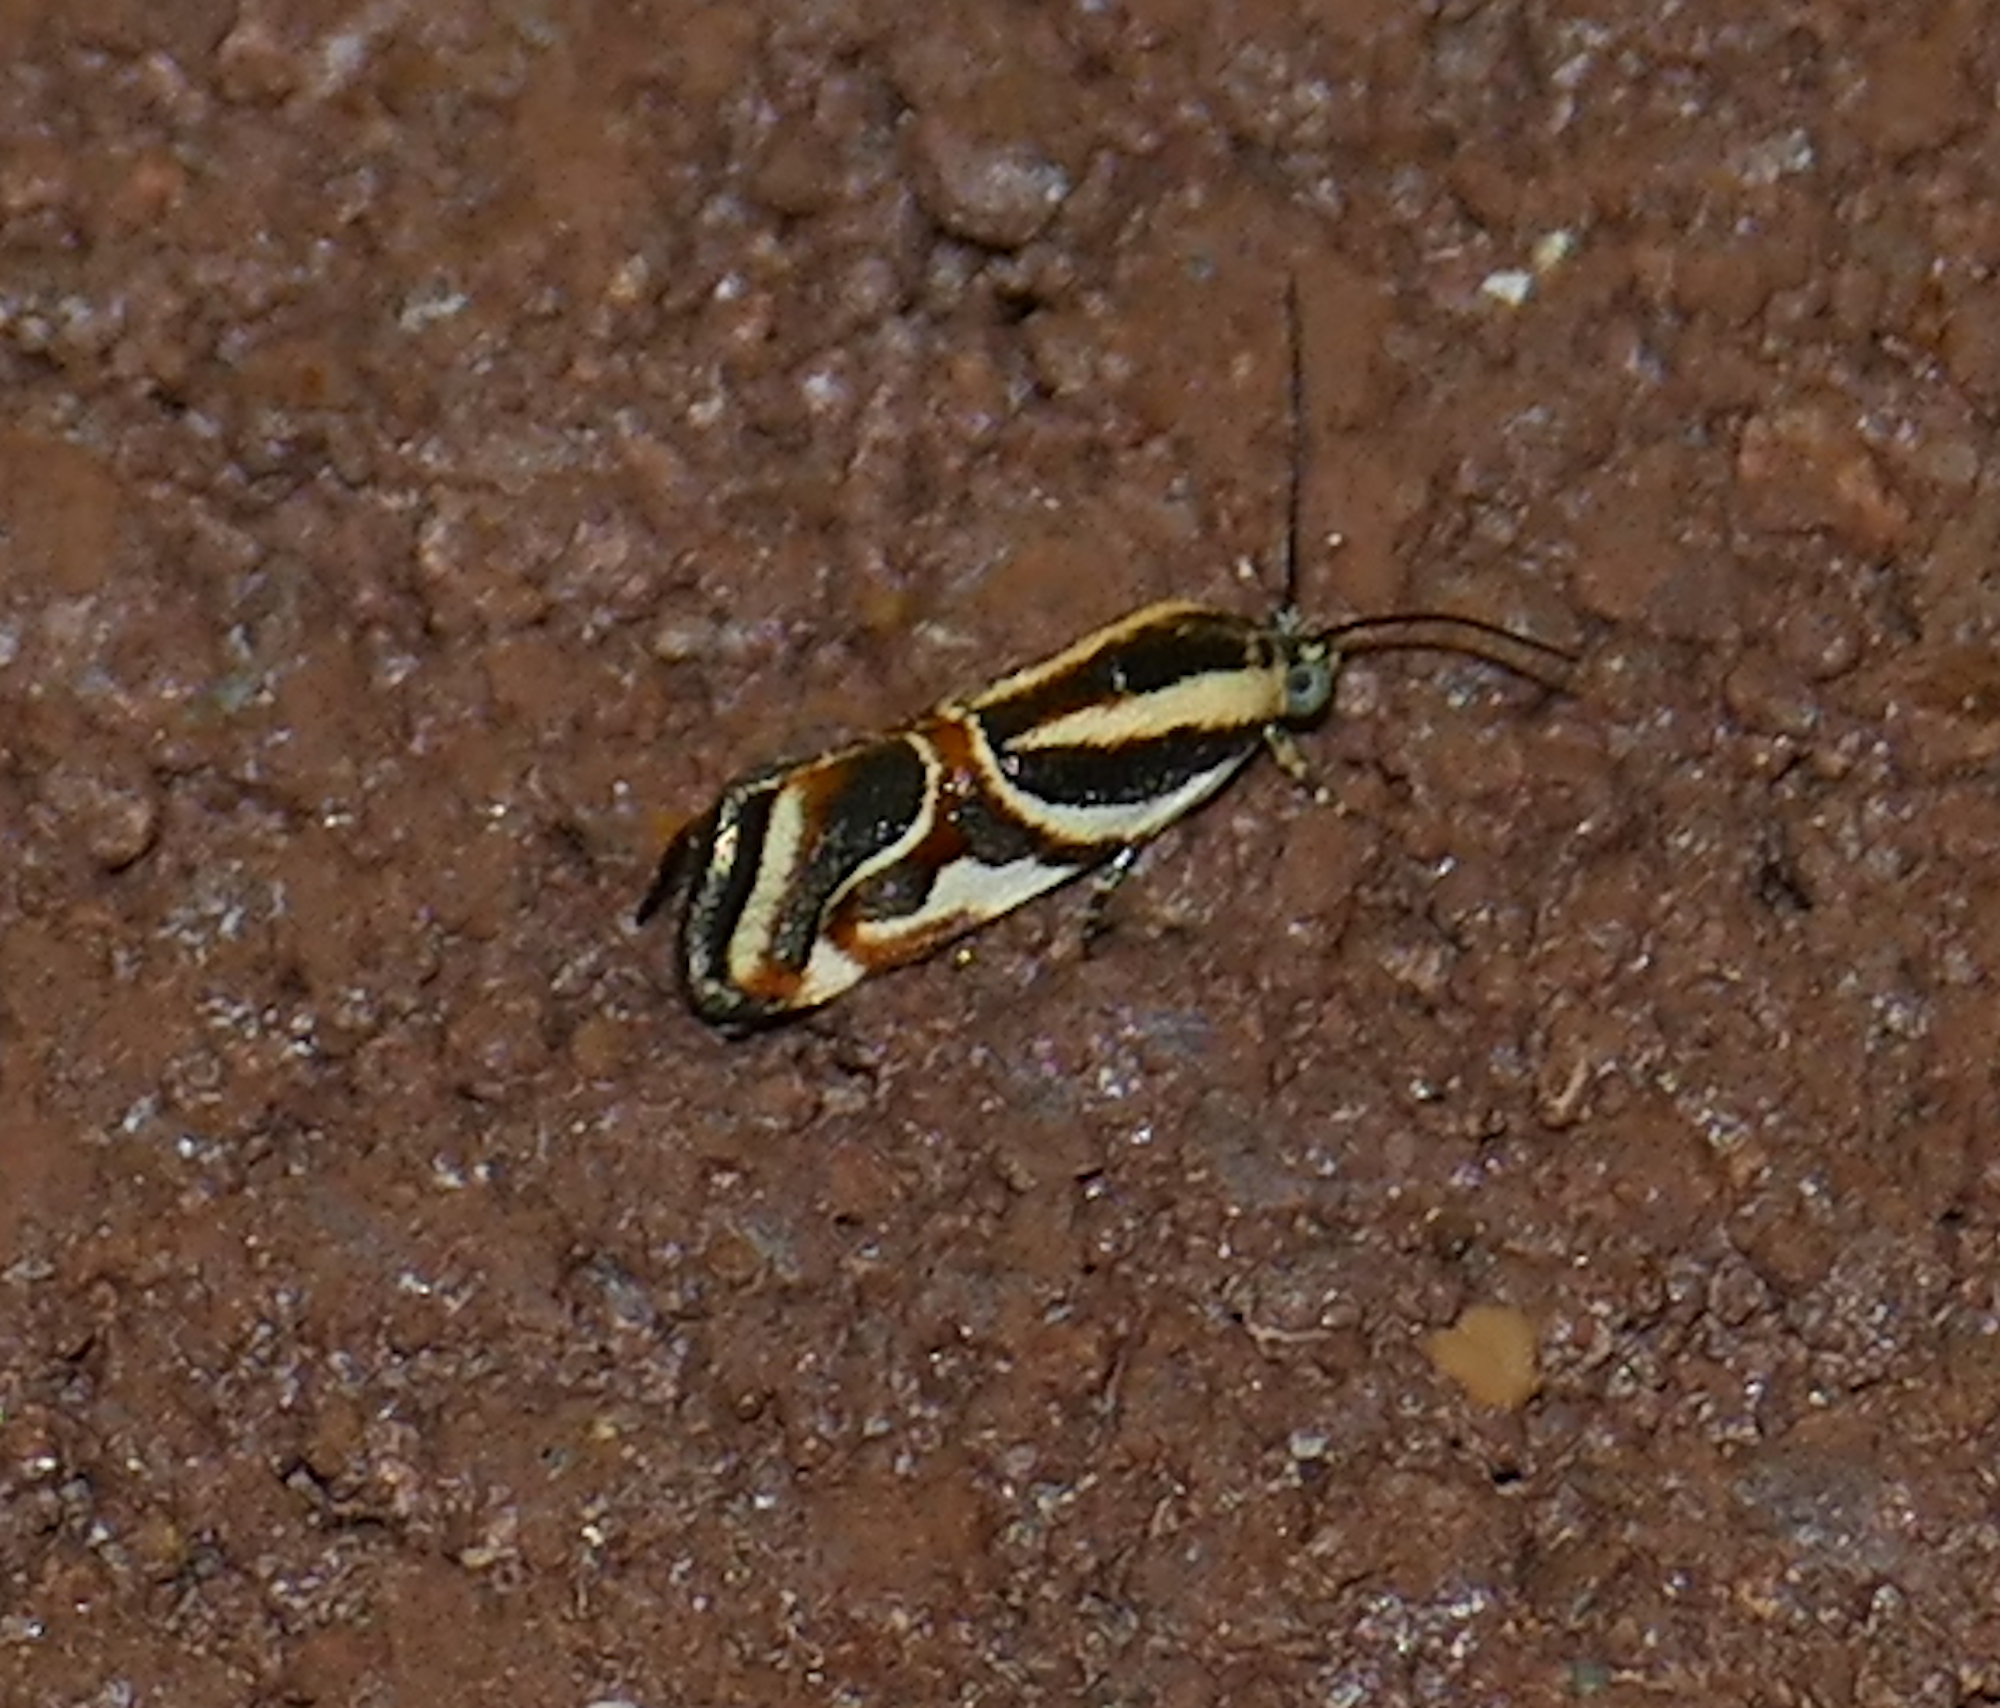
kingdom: Animalia
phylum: Arthropoda
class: Insecta
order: Lepidoptera
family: Noctuidae
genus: Spragueia
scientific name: Spragueia magnifica
